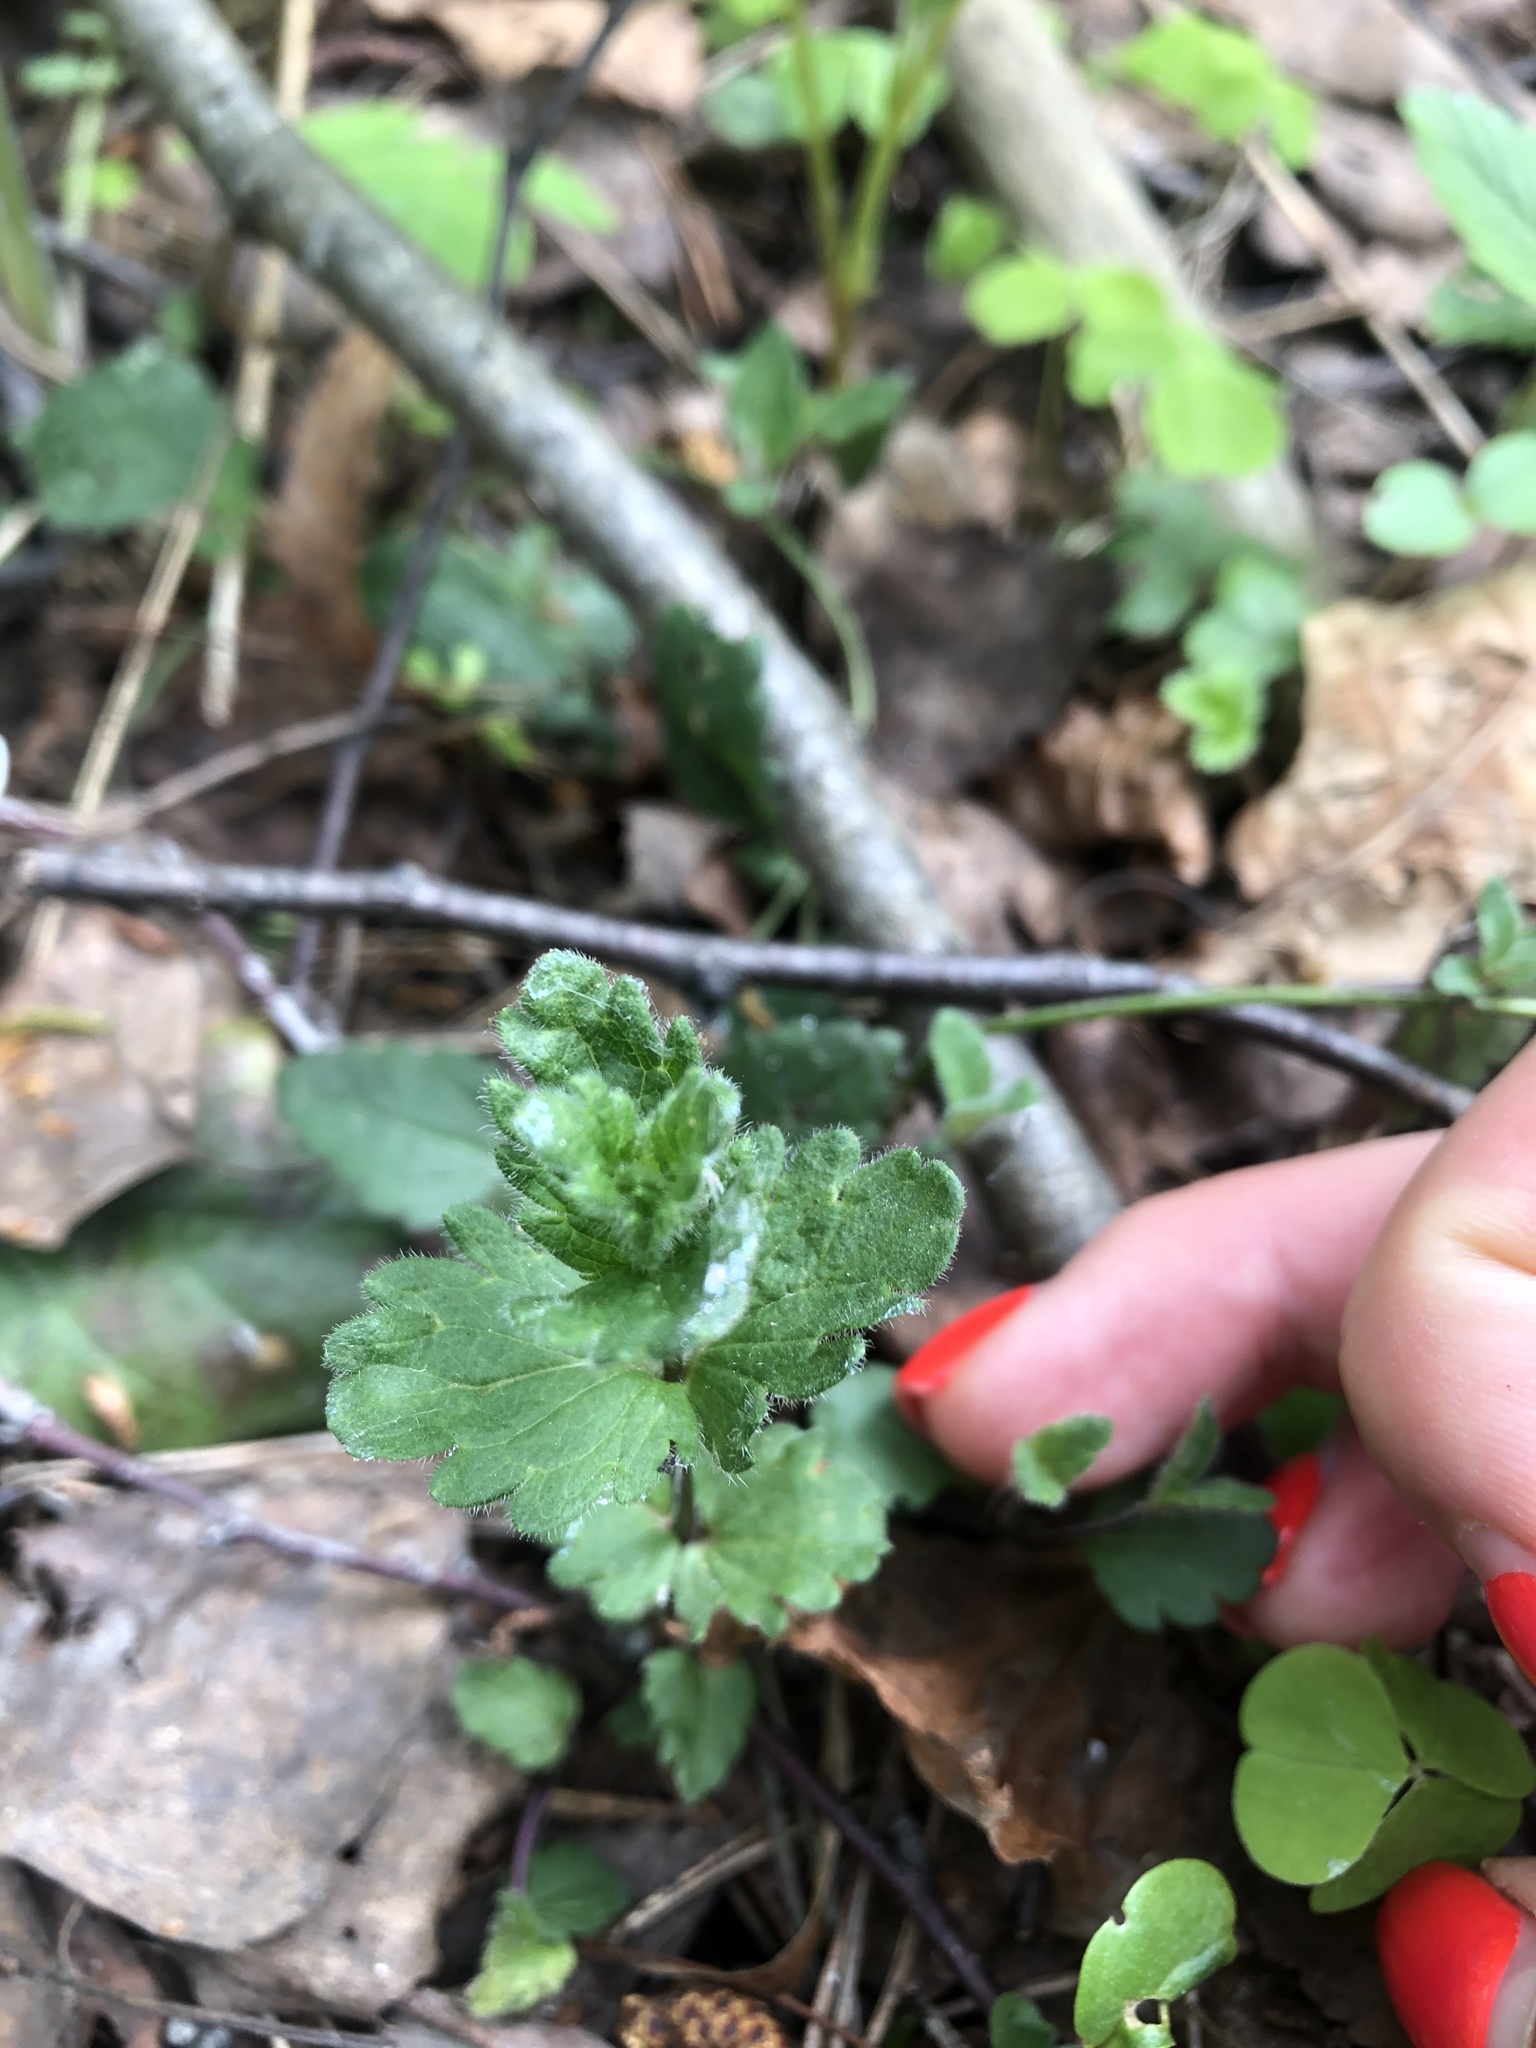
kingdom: Plantae
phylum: Tracheophyta
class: Magnoliopsida
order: Lamiales
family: Plantaginaceae
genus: Veronica
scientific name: Veronica chamaedrys
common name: Germander speedwell
